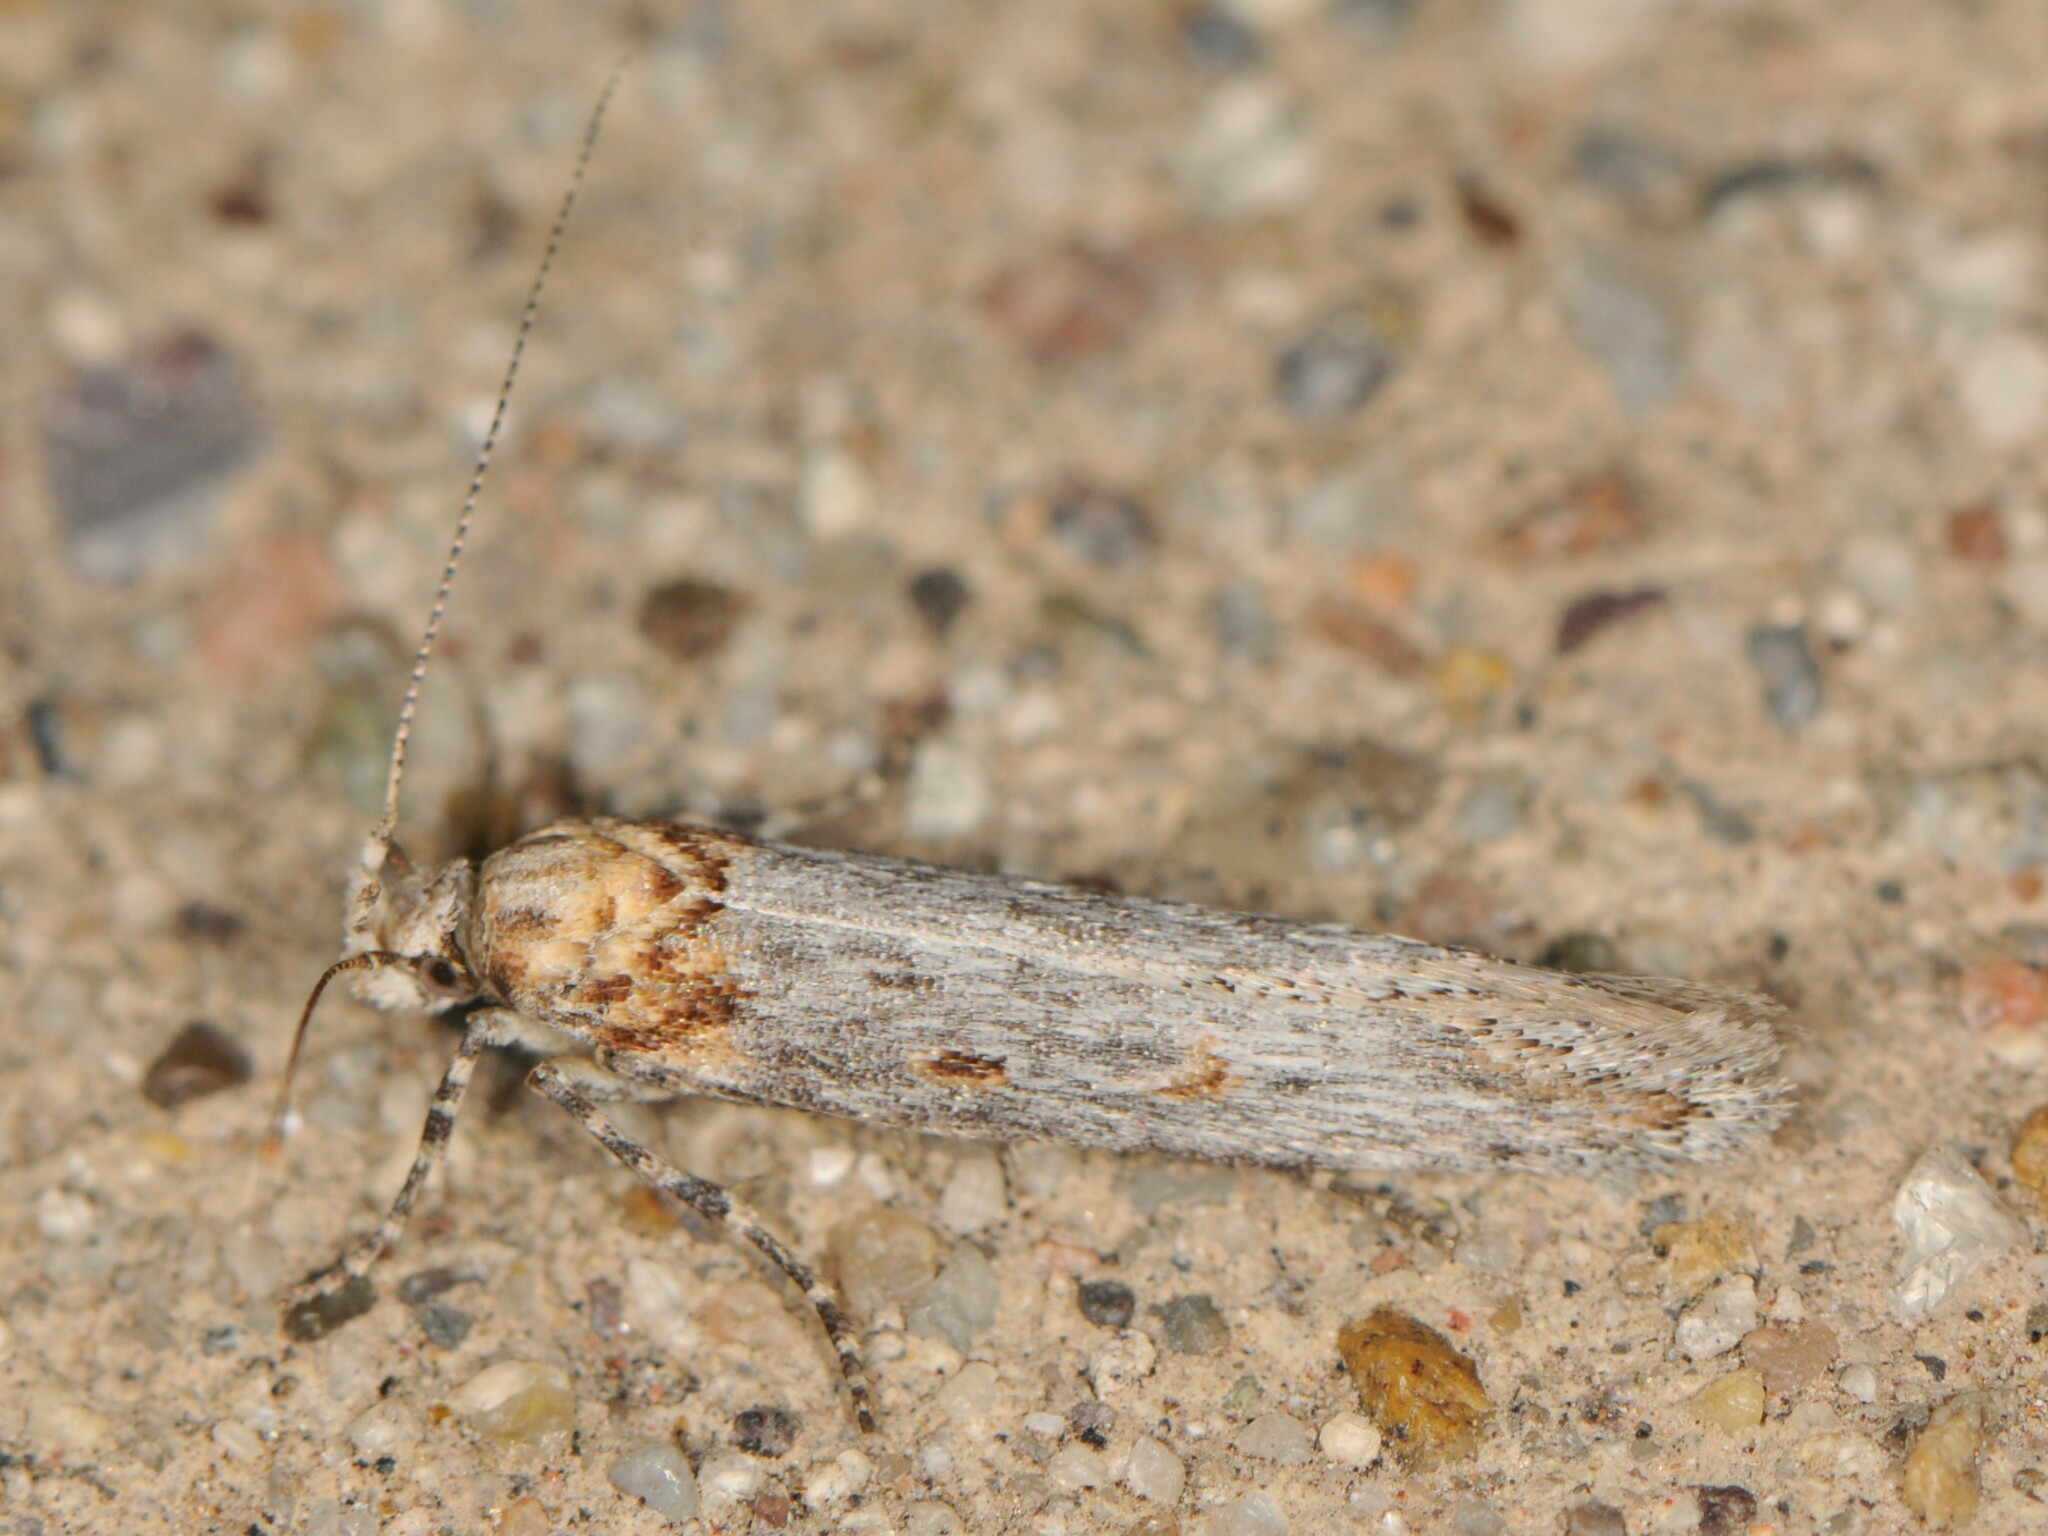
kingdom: Animalia
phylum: Arthropoda
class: Insecta
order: Lepidoptera
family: Gelechiidae
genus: Gnorimoschema
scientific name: Gnorimoschema baccharisella
